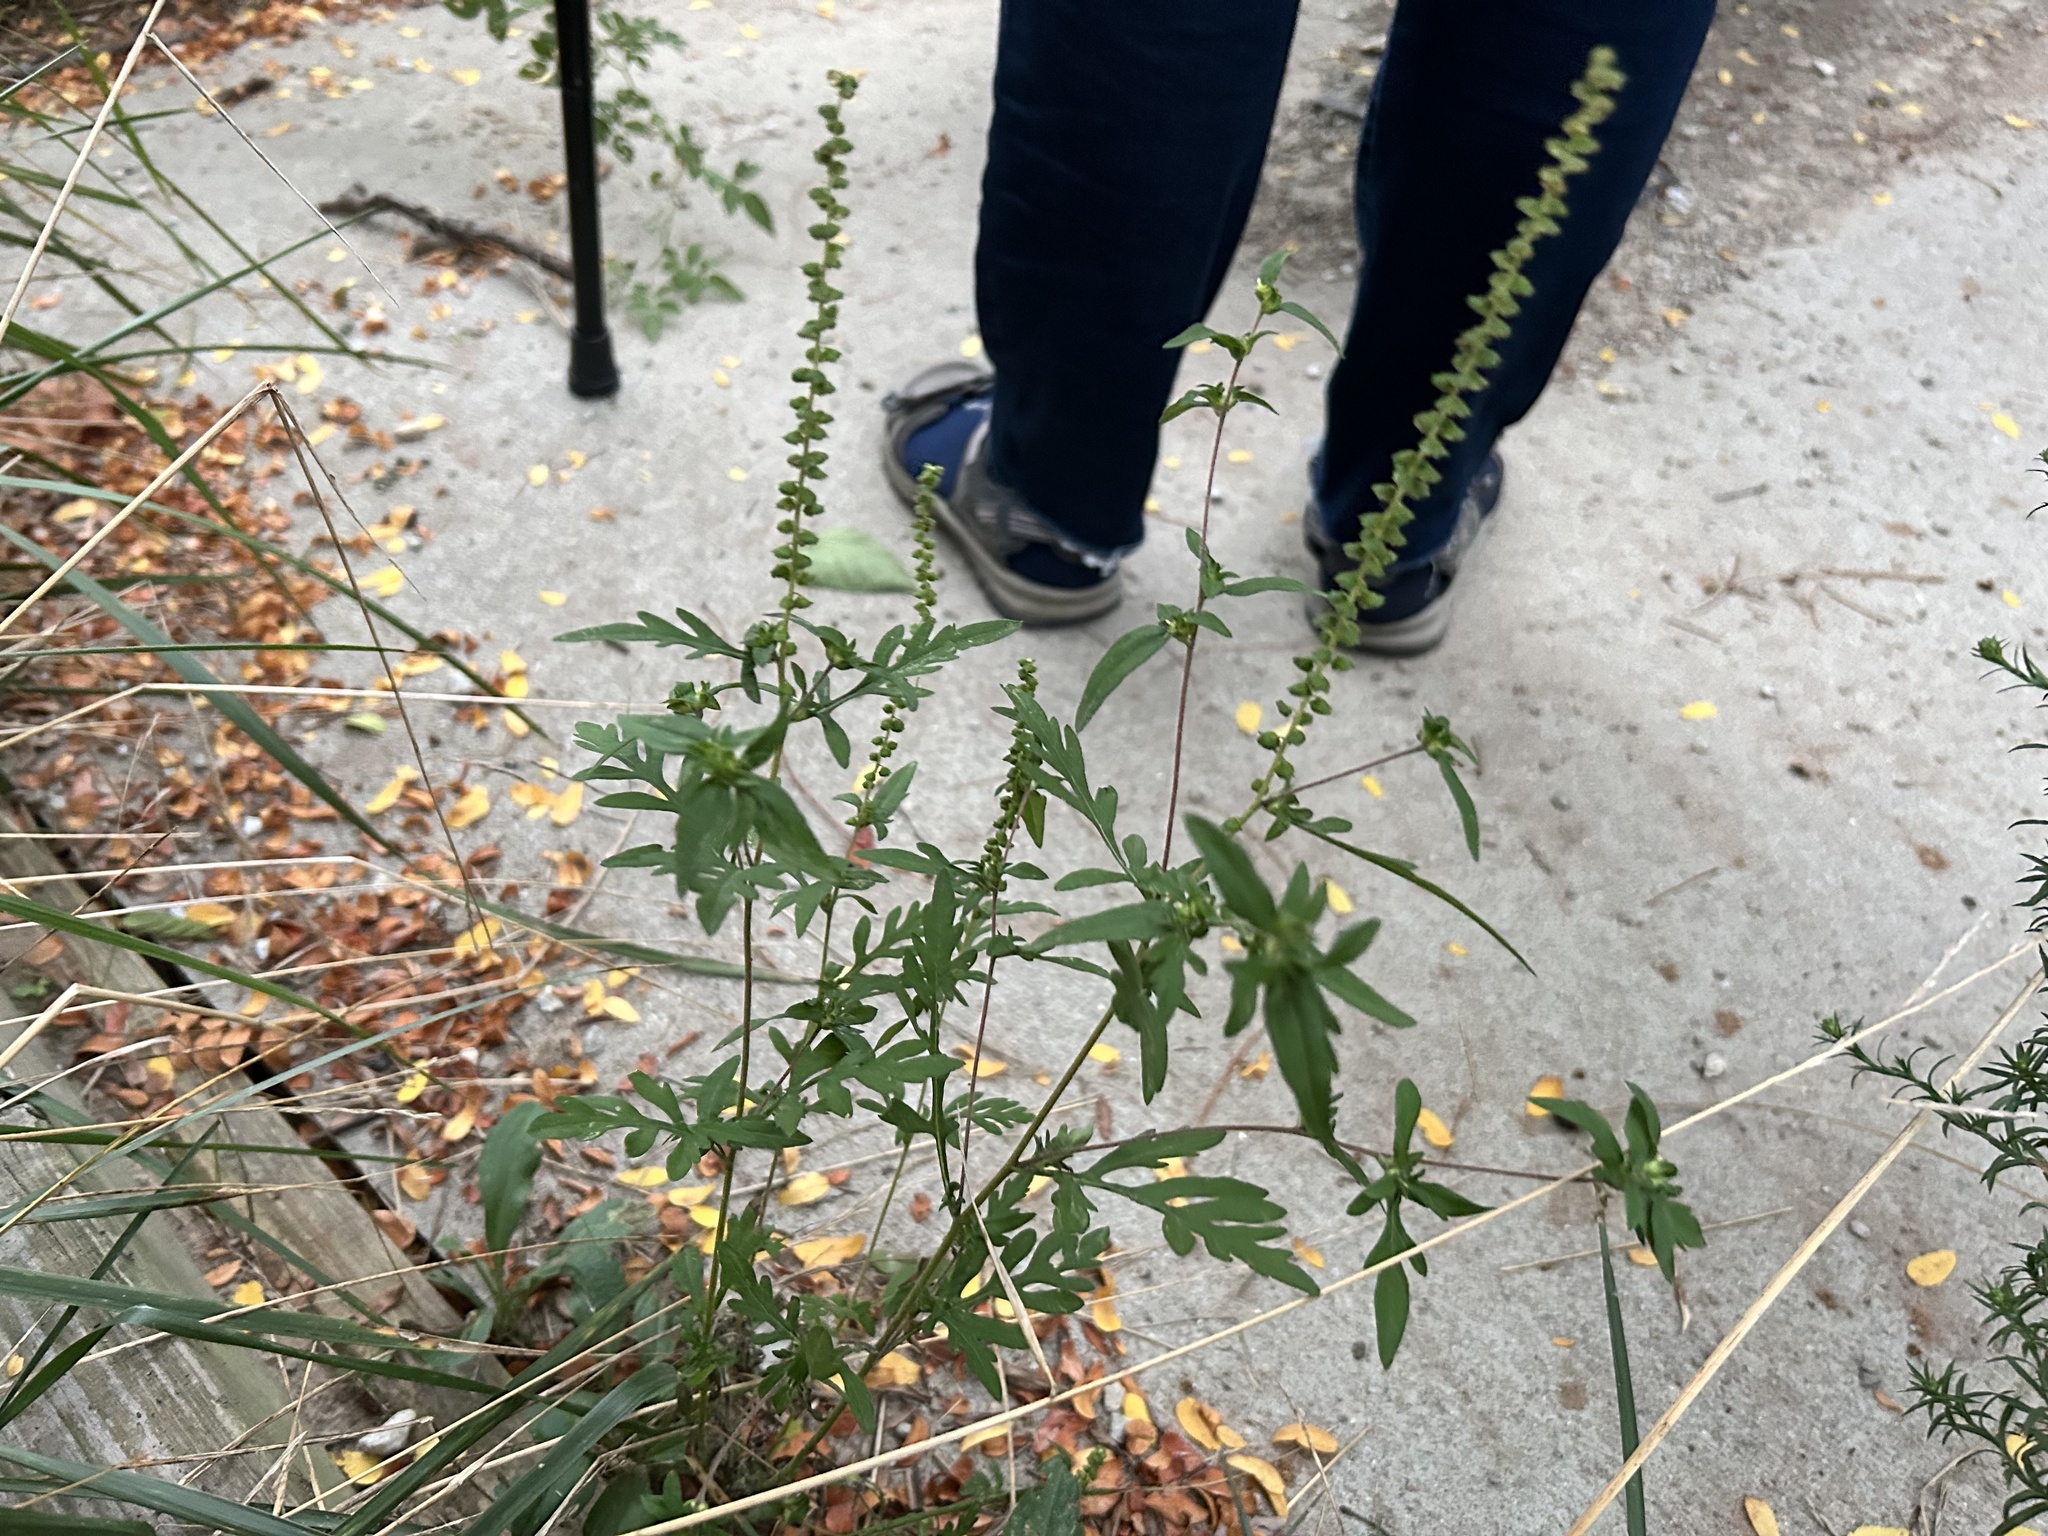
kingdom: Plantae
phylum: Tracheophyta
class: Magnoliopsida
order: Asterales
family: Asteraceae
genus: Ambrosia
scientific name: Ambrosia artemisiifolia
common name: Annual ragweed
